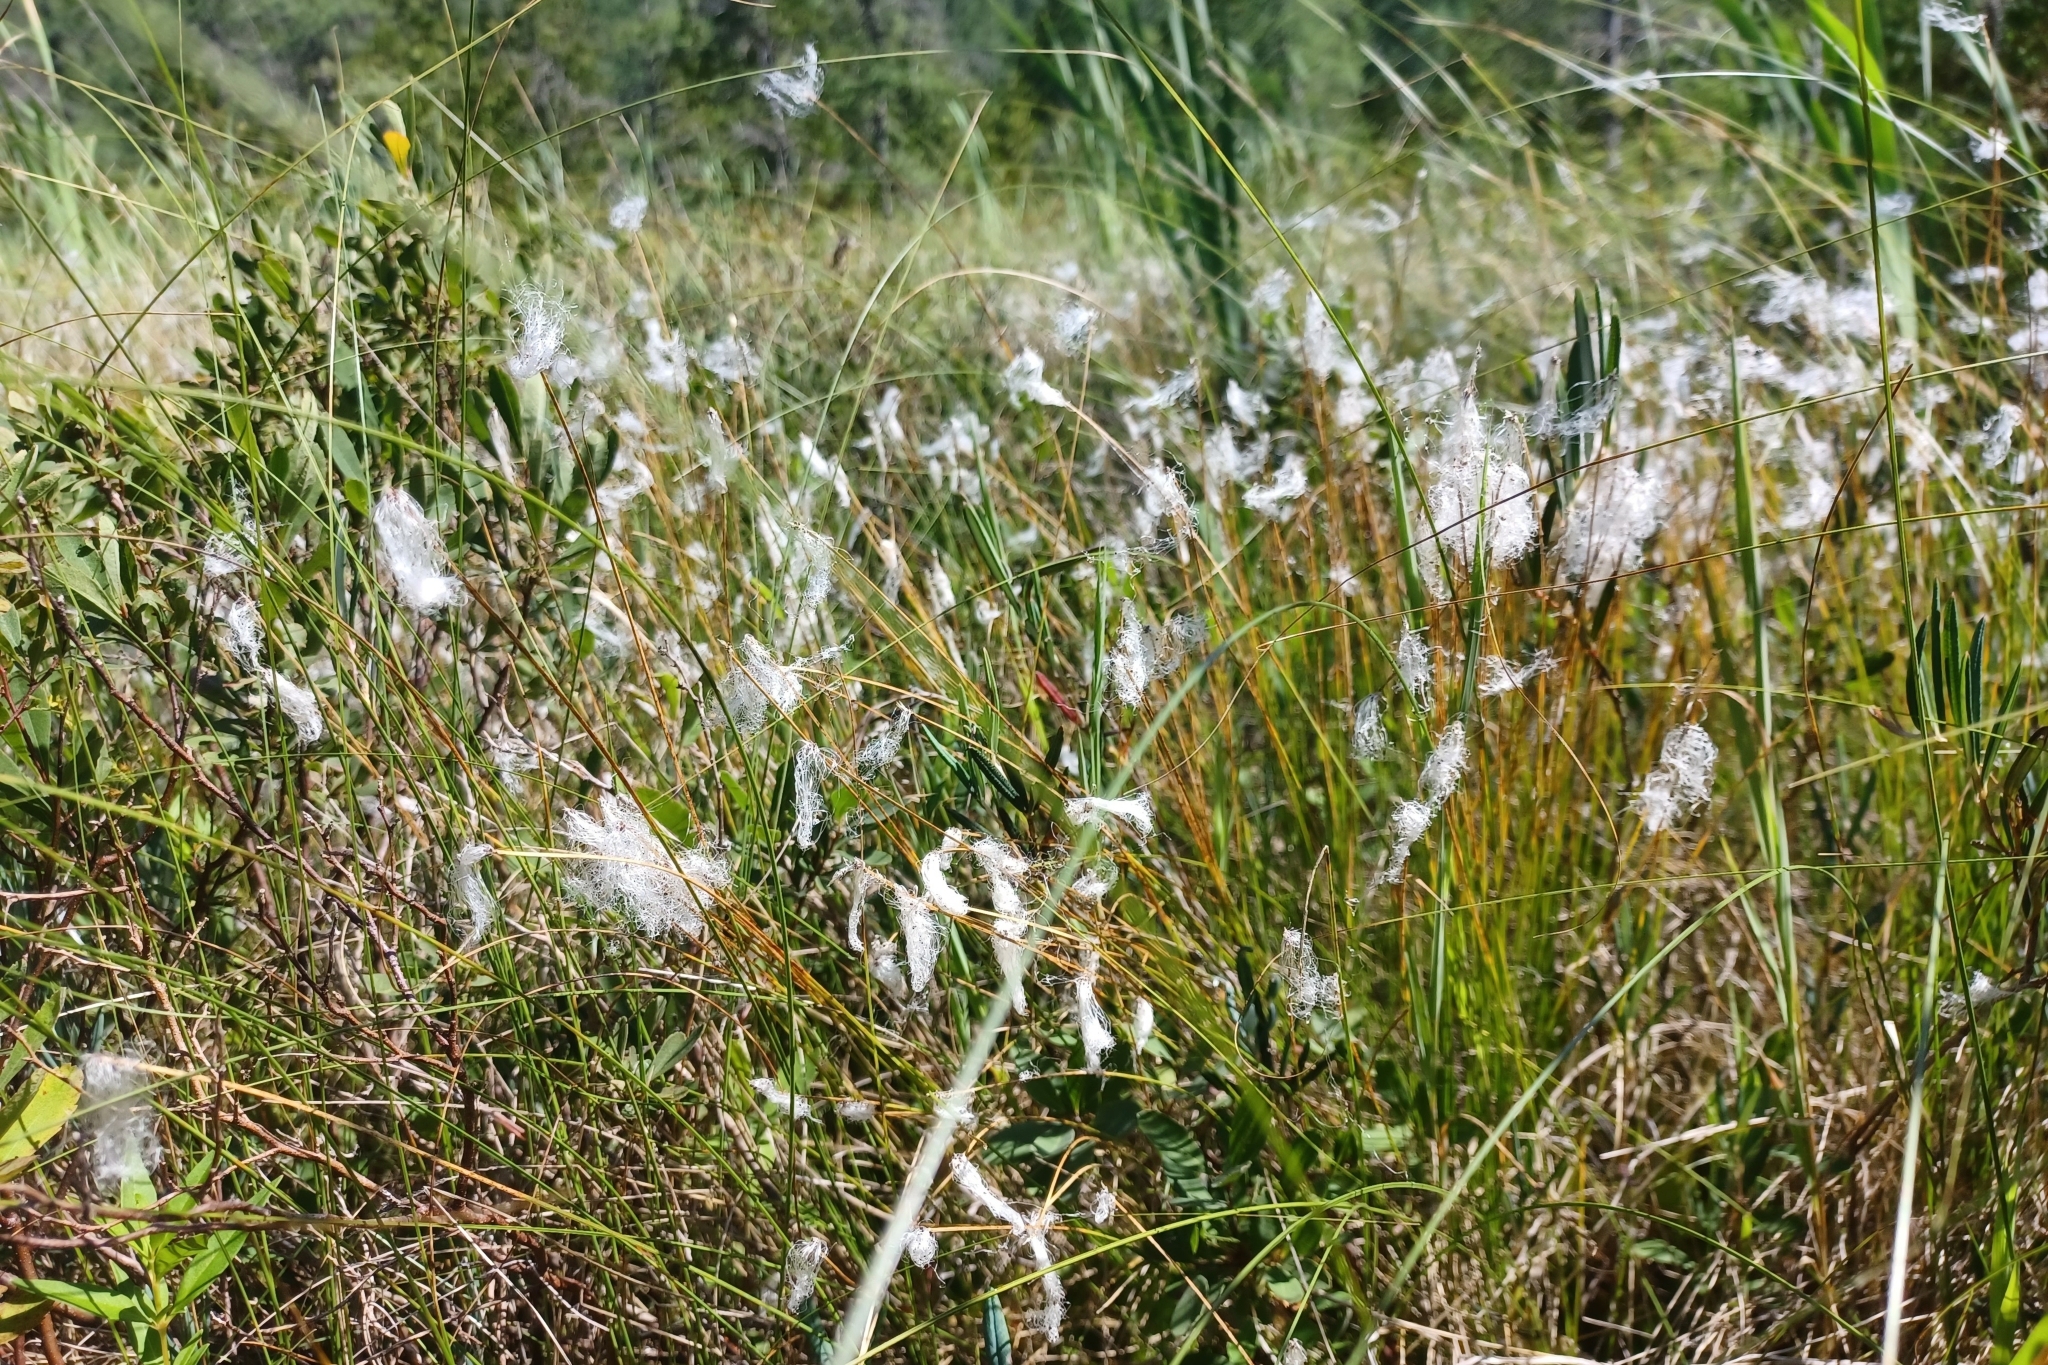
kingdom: Plantae
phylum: Tracheophyta
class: Liliopsida
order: Poales
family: Cyperaceae
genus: Trichophorum
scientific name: Trichophorum alpinum
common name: Alpine bulrush
